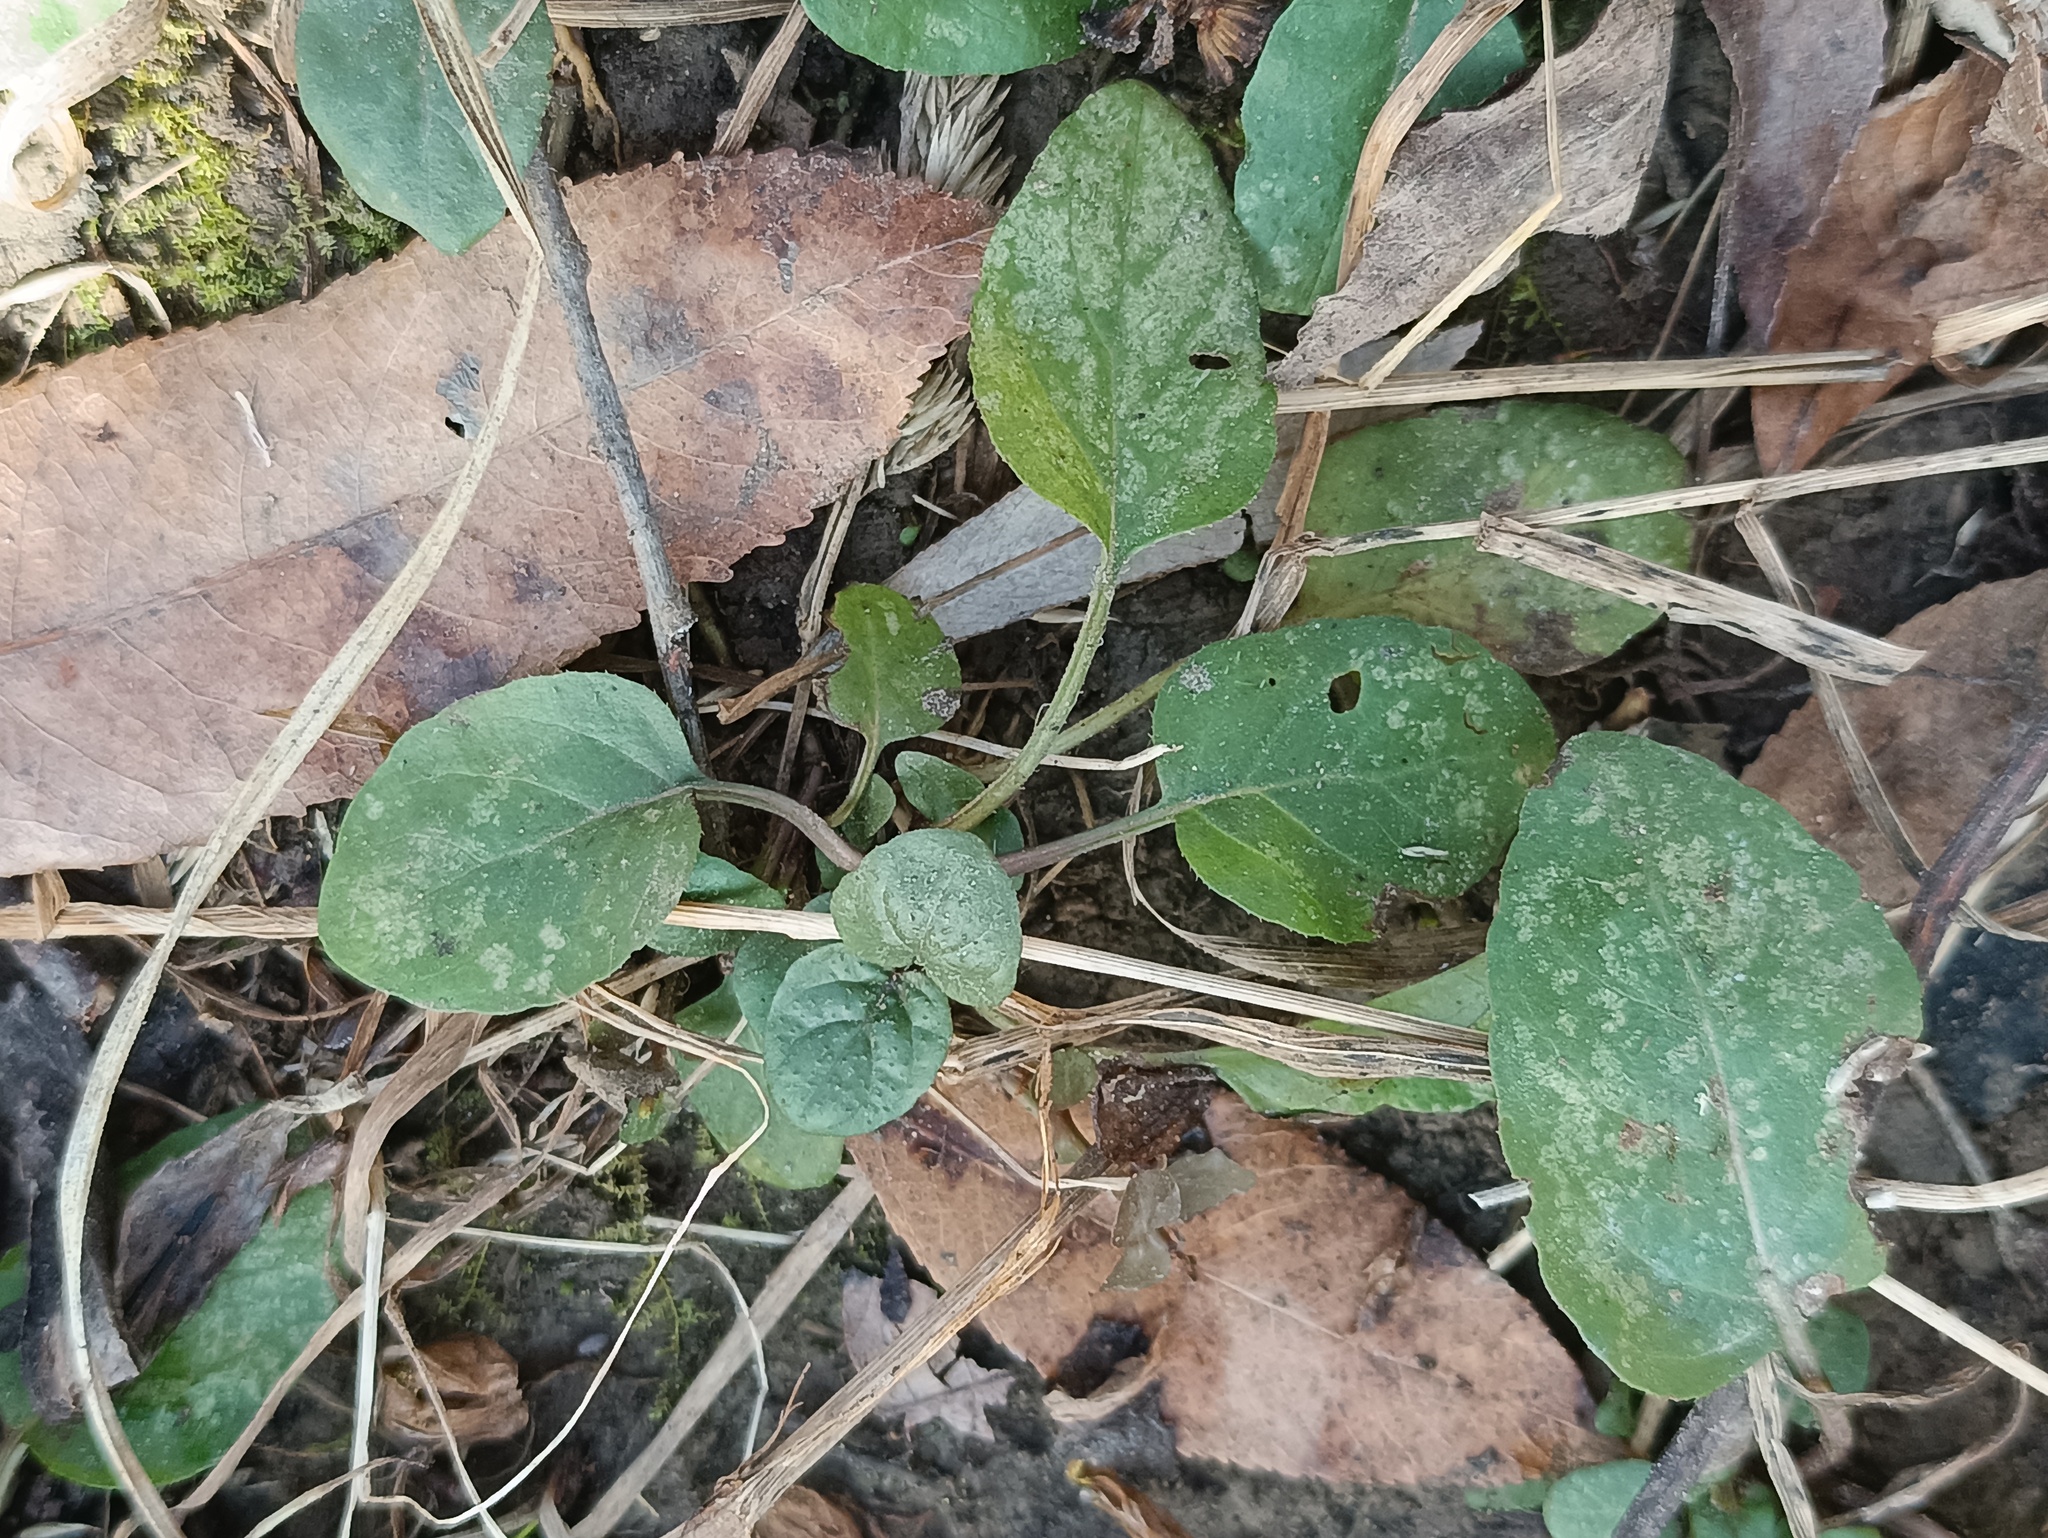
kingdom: Plantae
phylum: Tracheophyta
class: Magnoliopsida
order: Lamiales
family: Lamiaceae
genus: Prunella
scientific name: Prunella vulgaris
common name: Heal-all
